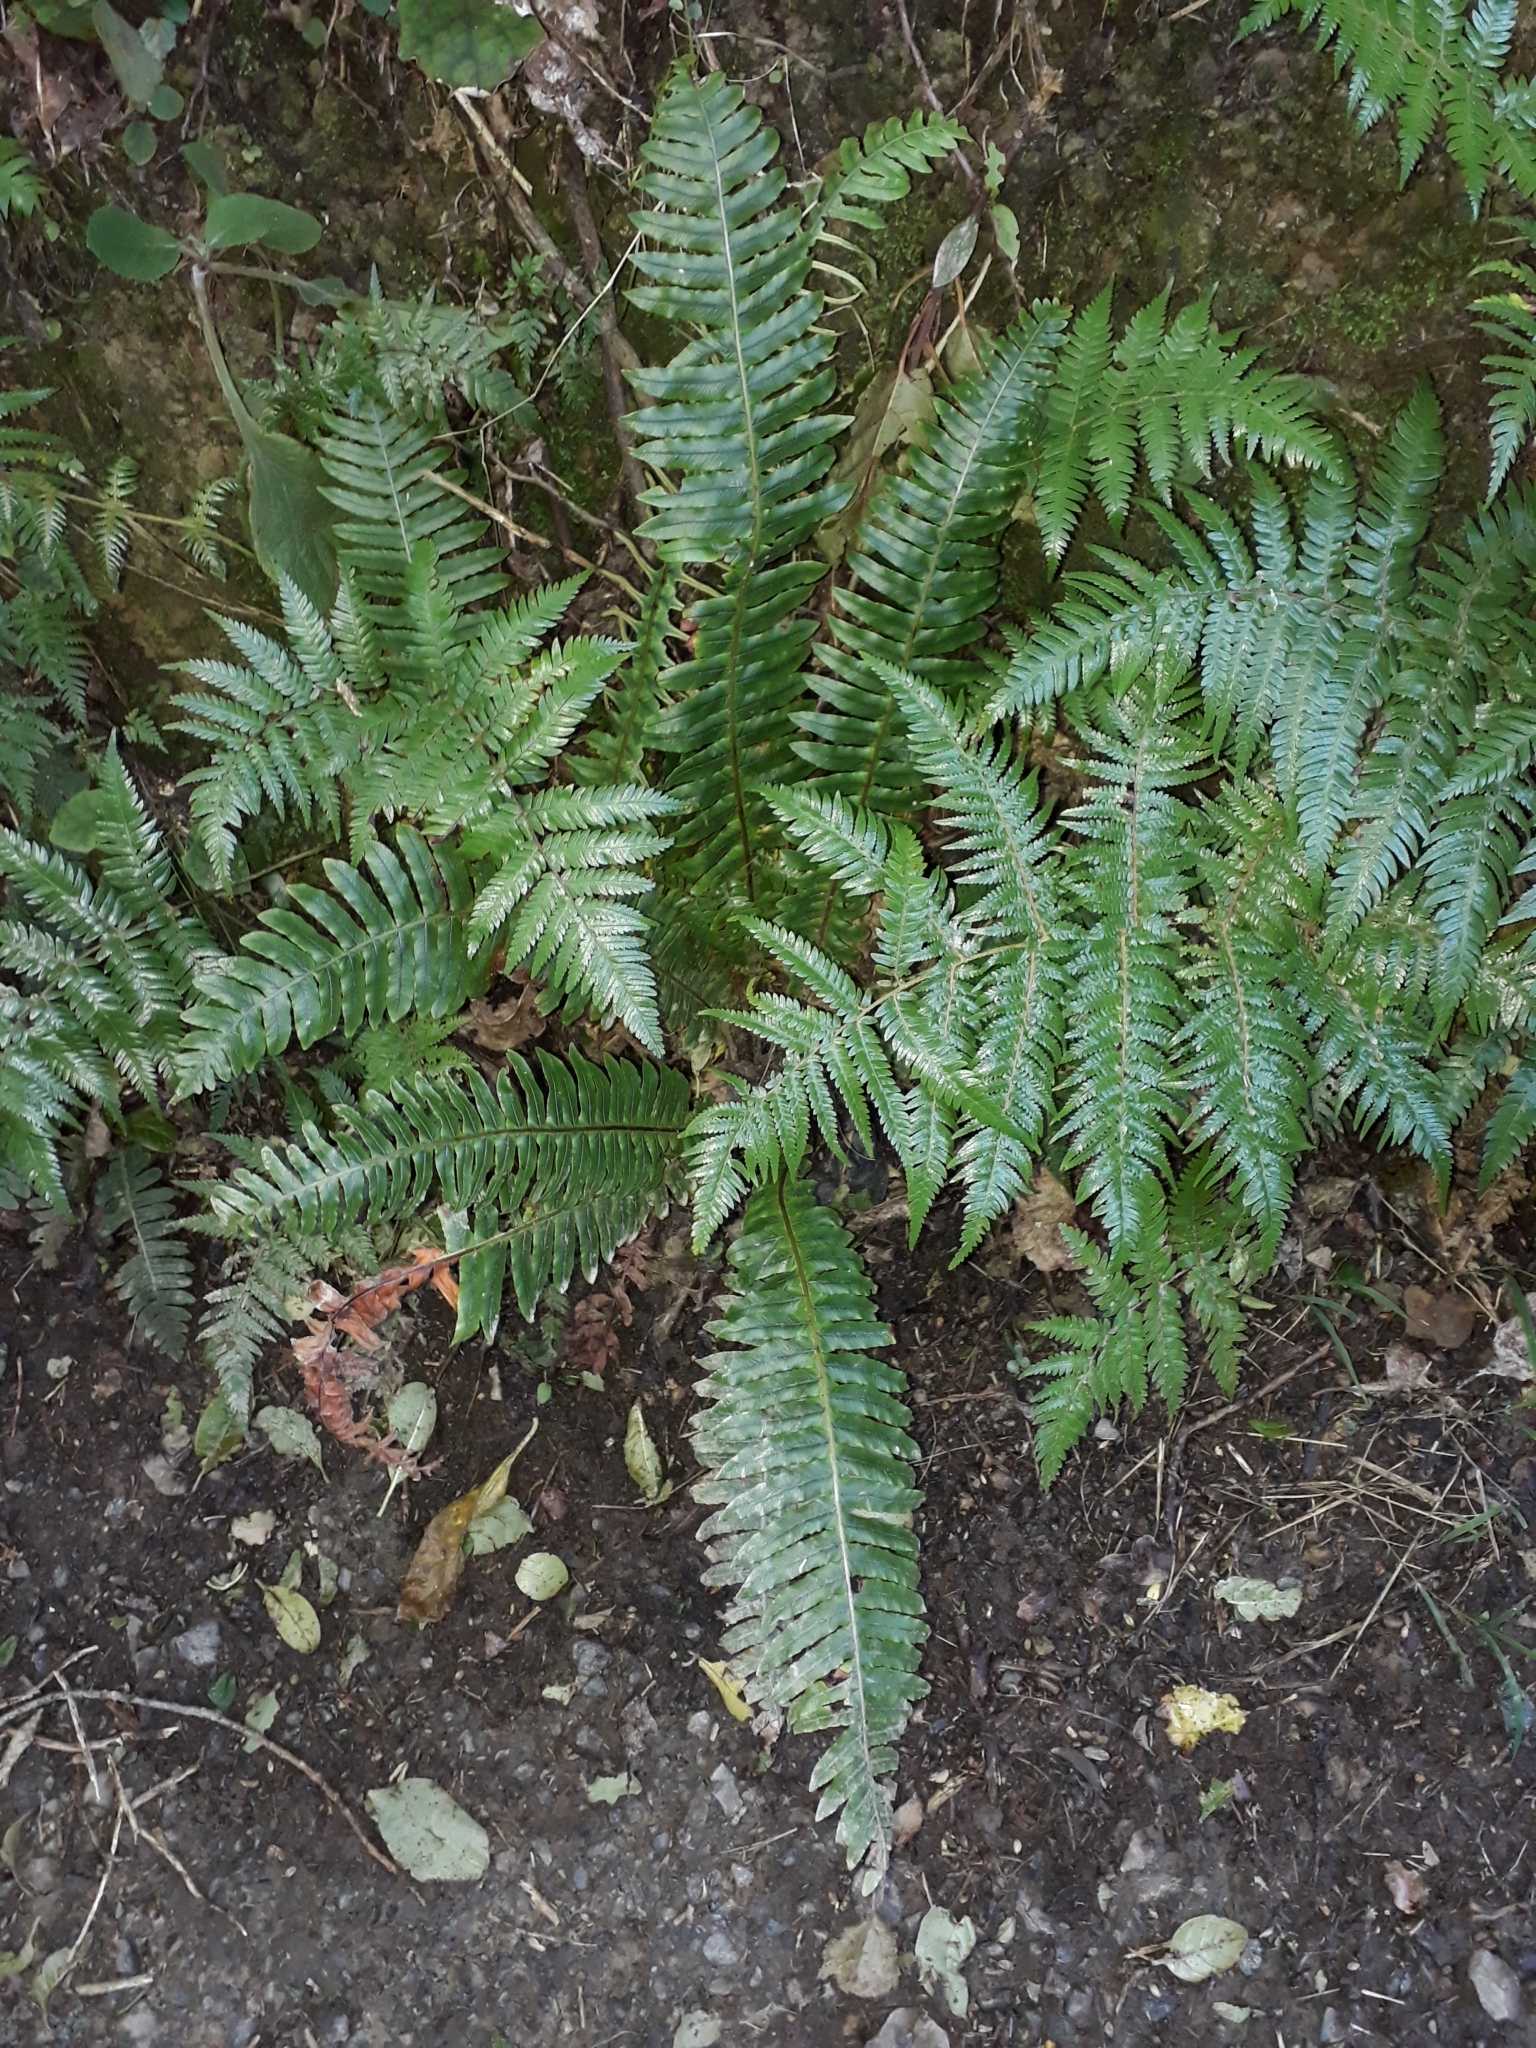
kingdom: Plantae
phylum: Tracheophyta
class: Polypodiopsida
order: Polypodiales
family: Blechnaceae
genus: Lomaria
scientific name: Lomaria discolor
